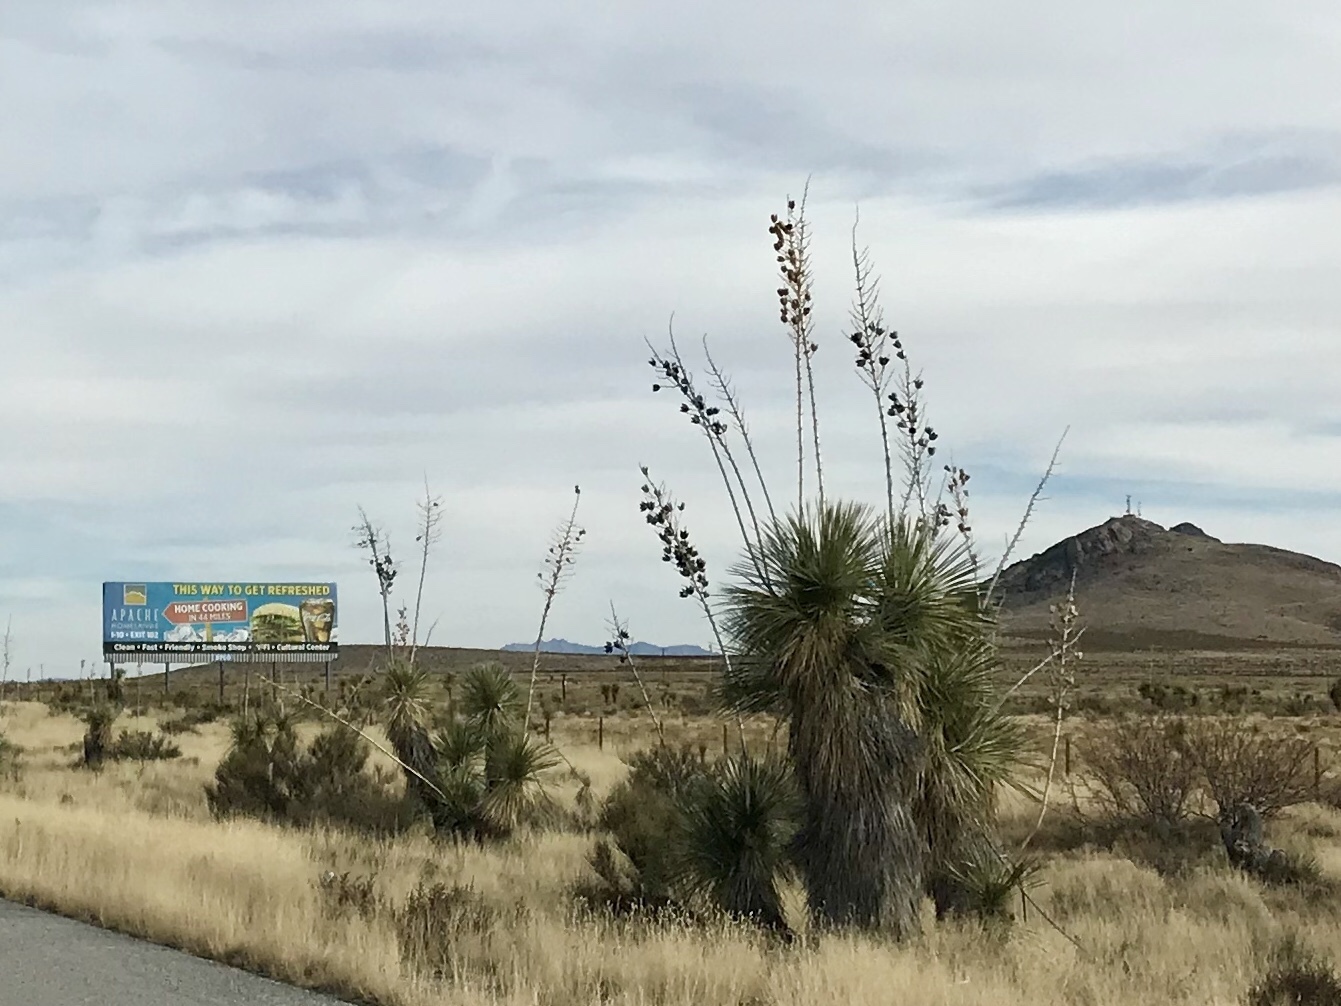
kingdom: Plantae
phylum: Tracheophyta
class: Liliopsida
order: Asparagales
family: Asparagaceae
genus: Yucca
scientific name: Yucca elata
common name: Palmella
